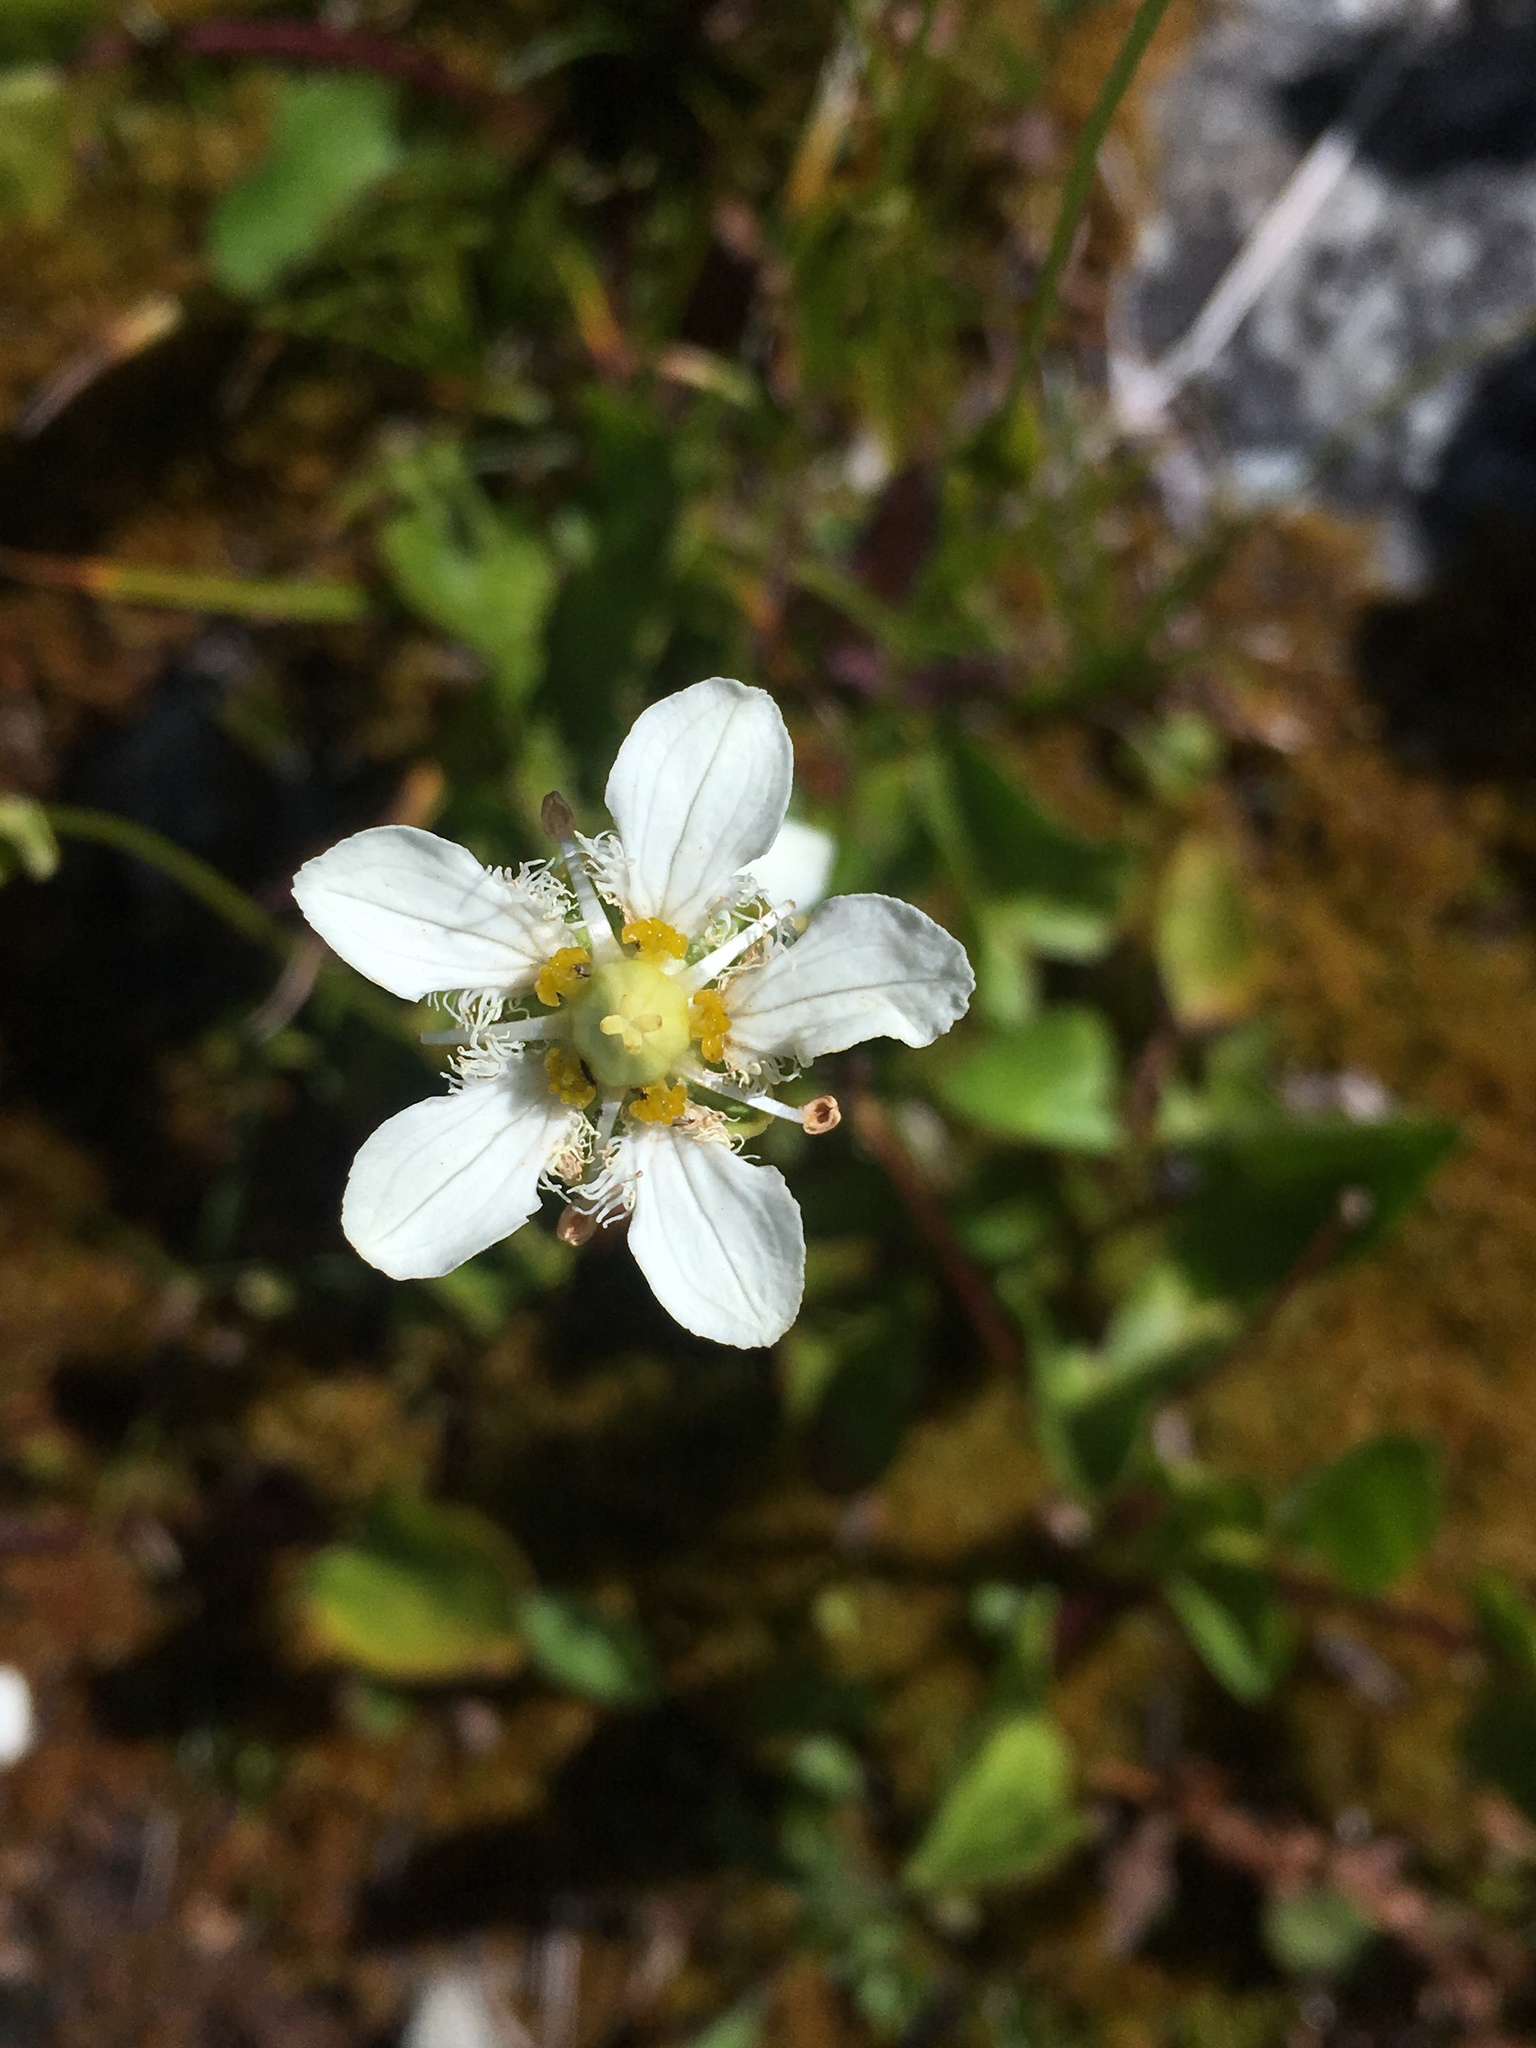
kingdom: Plantae
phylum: Tracheophyta
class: Magnoliopsida
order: Celastrales
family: Parnassiaceae
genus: Parnassia
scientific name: Parnassia fimbriata
